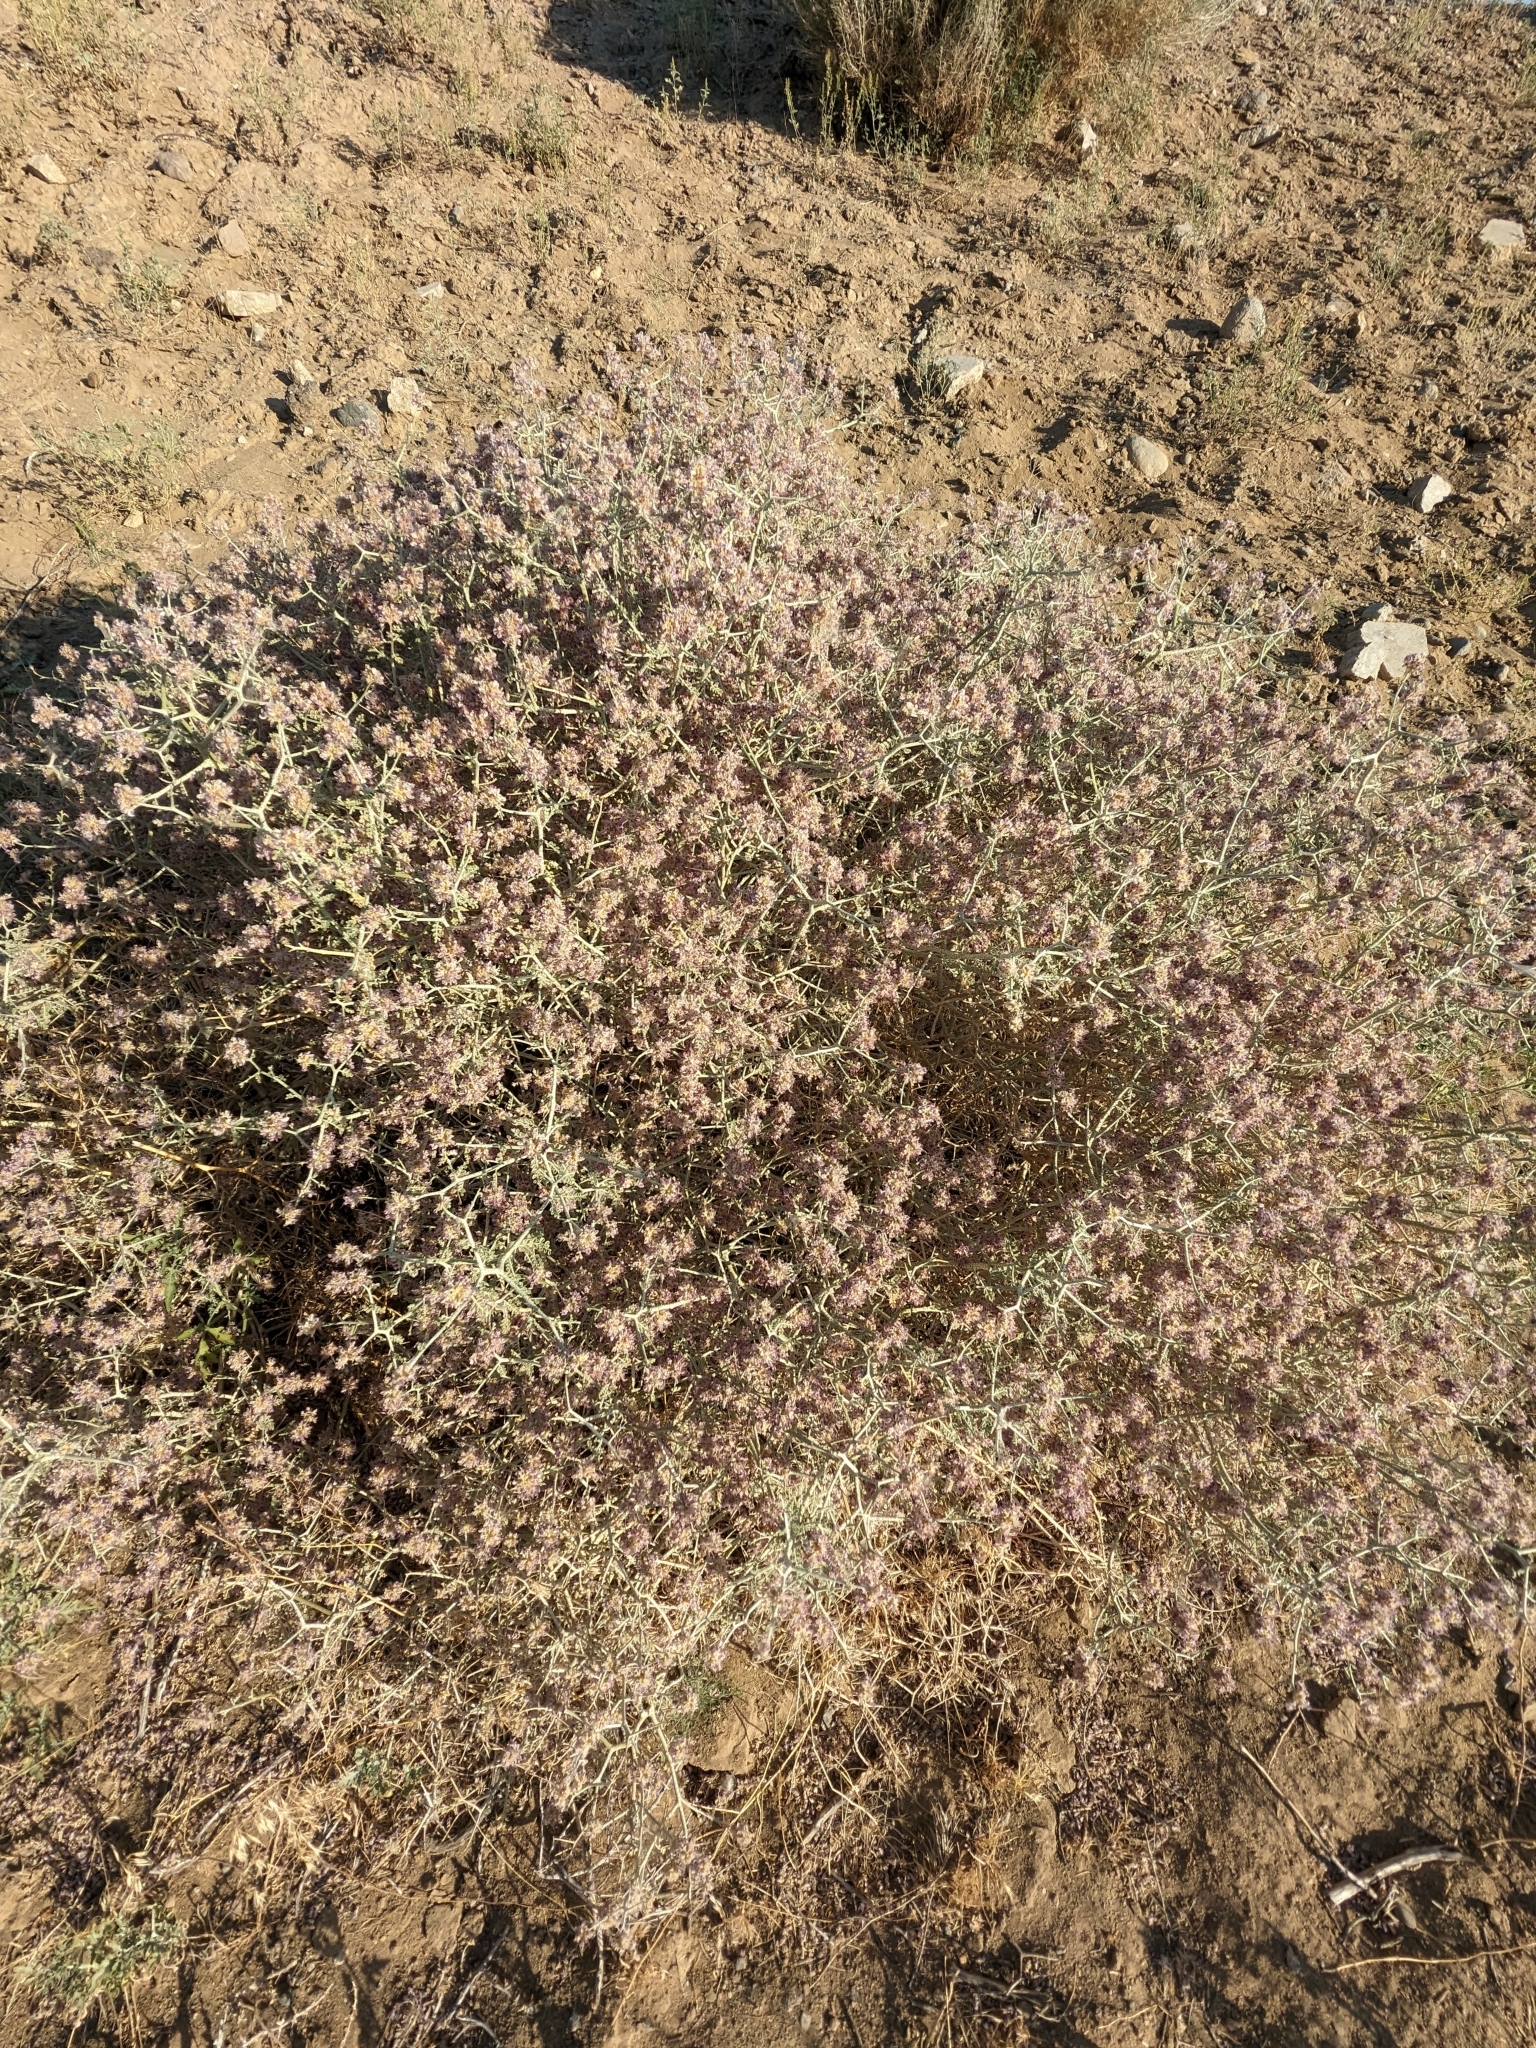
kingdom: Plantae
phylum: Tracheophyta
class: Magnoliopsida
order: Fabales
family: Fabaceae
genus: Psorothamnus
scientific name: Psorothamnus polydenius
